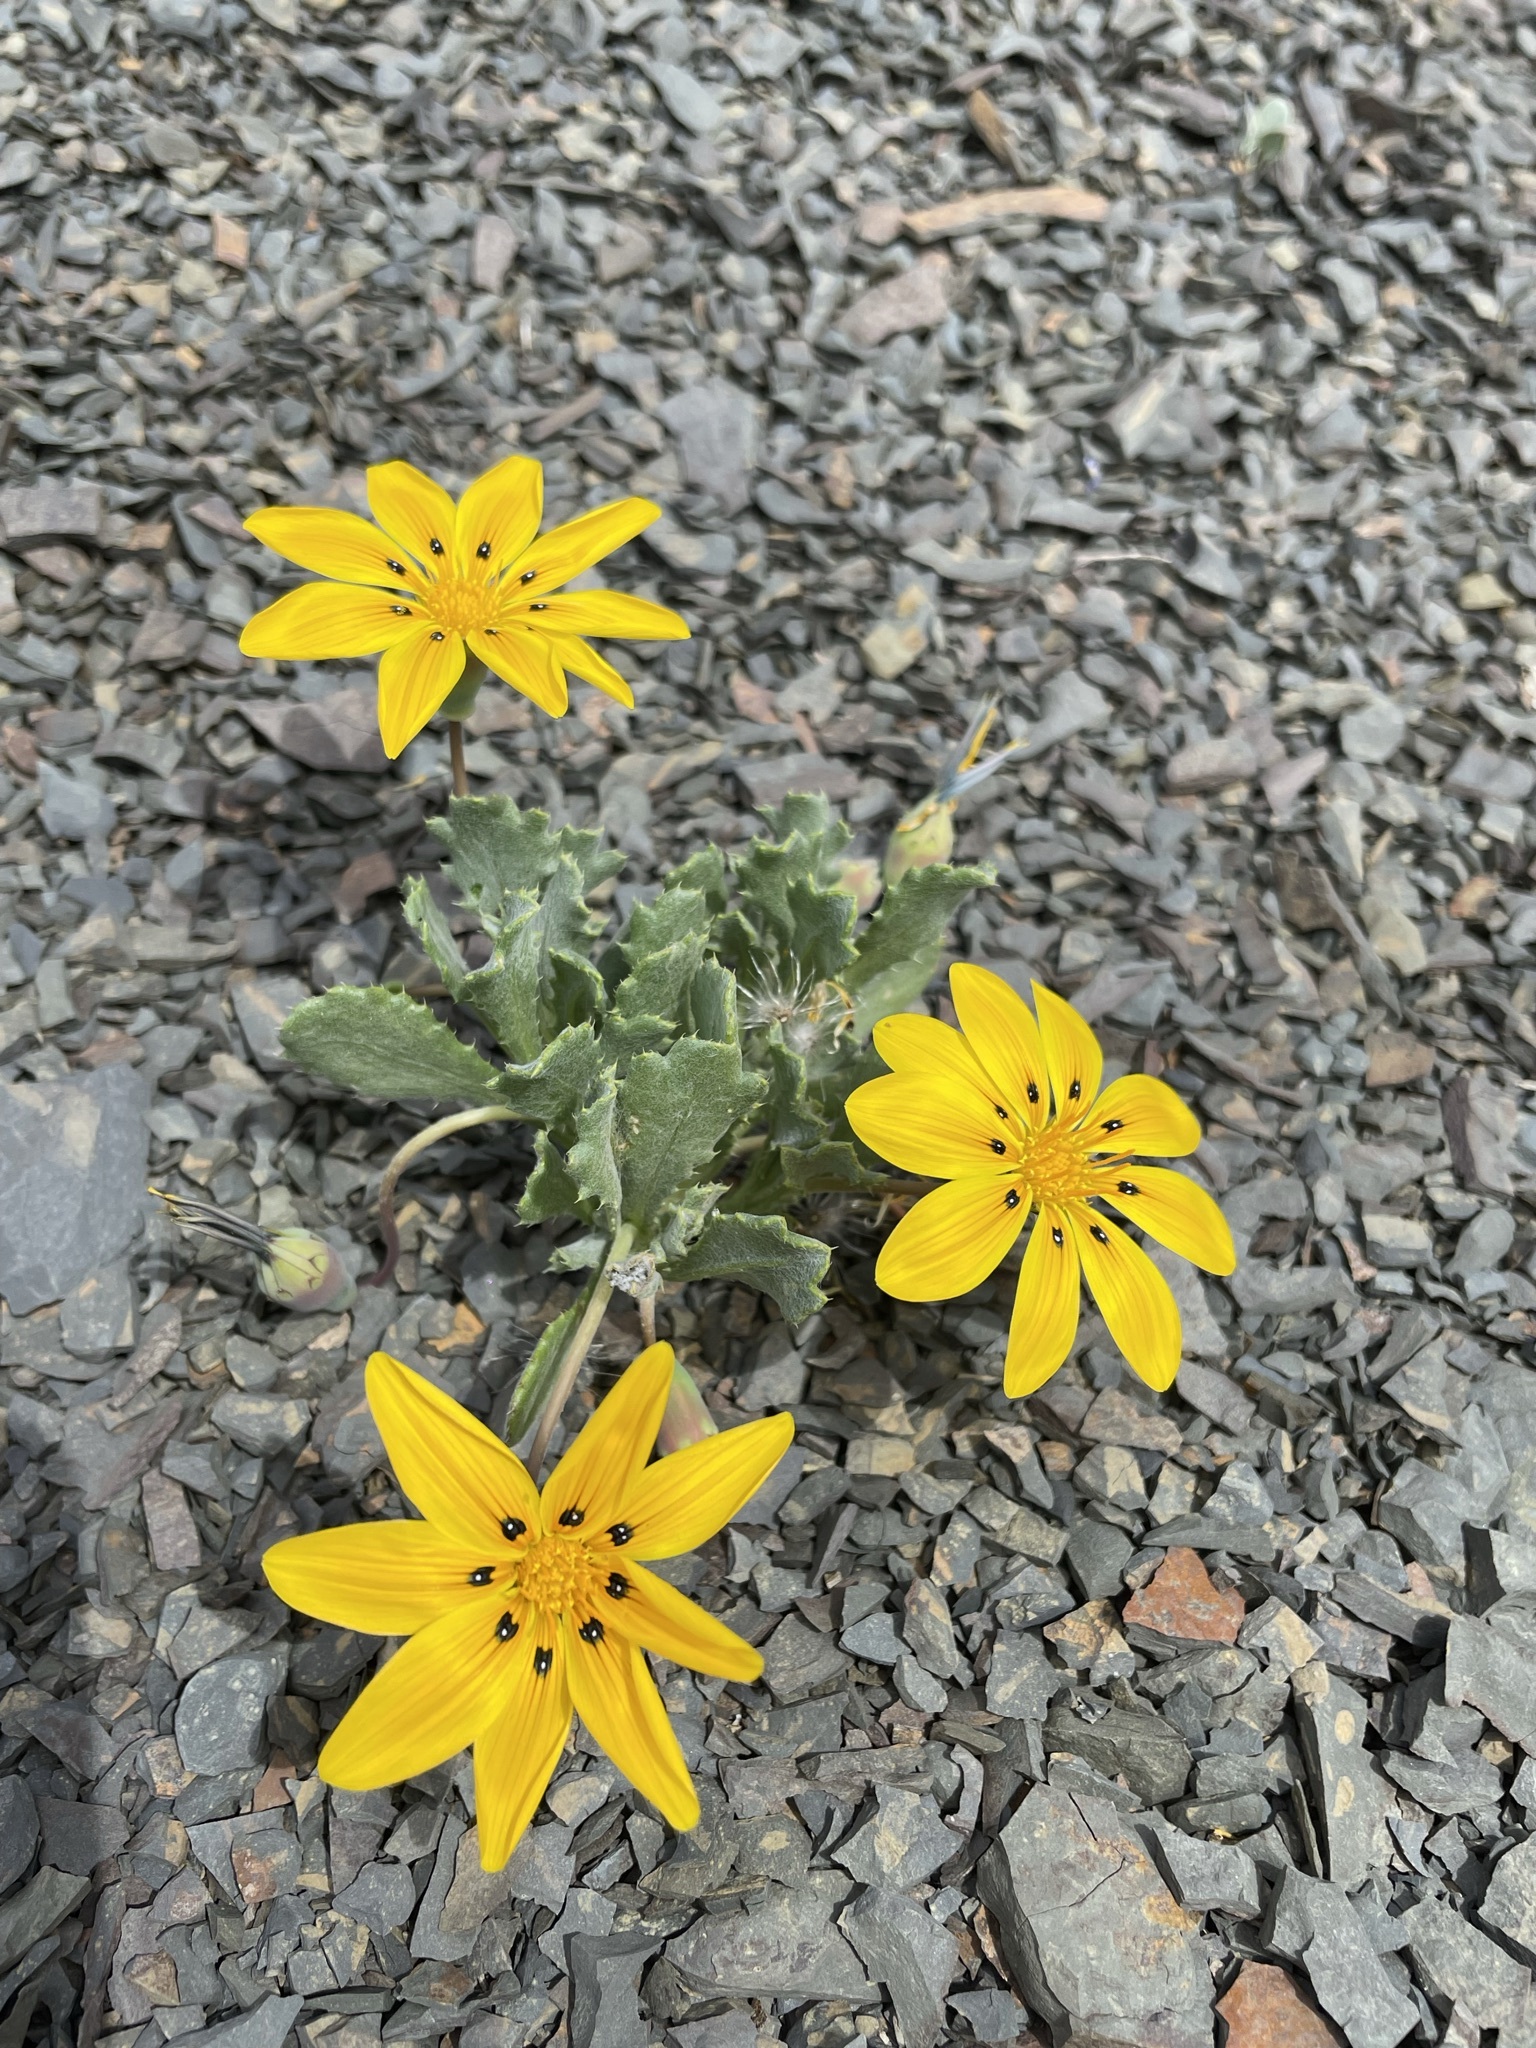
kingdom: Plantae
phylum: Tracheophyta
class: Magnoliopsida
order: Asterales
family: Asteraceae
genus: Gazania
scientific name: Gazania lichtensteinii
